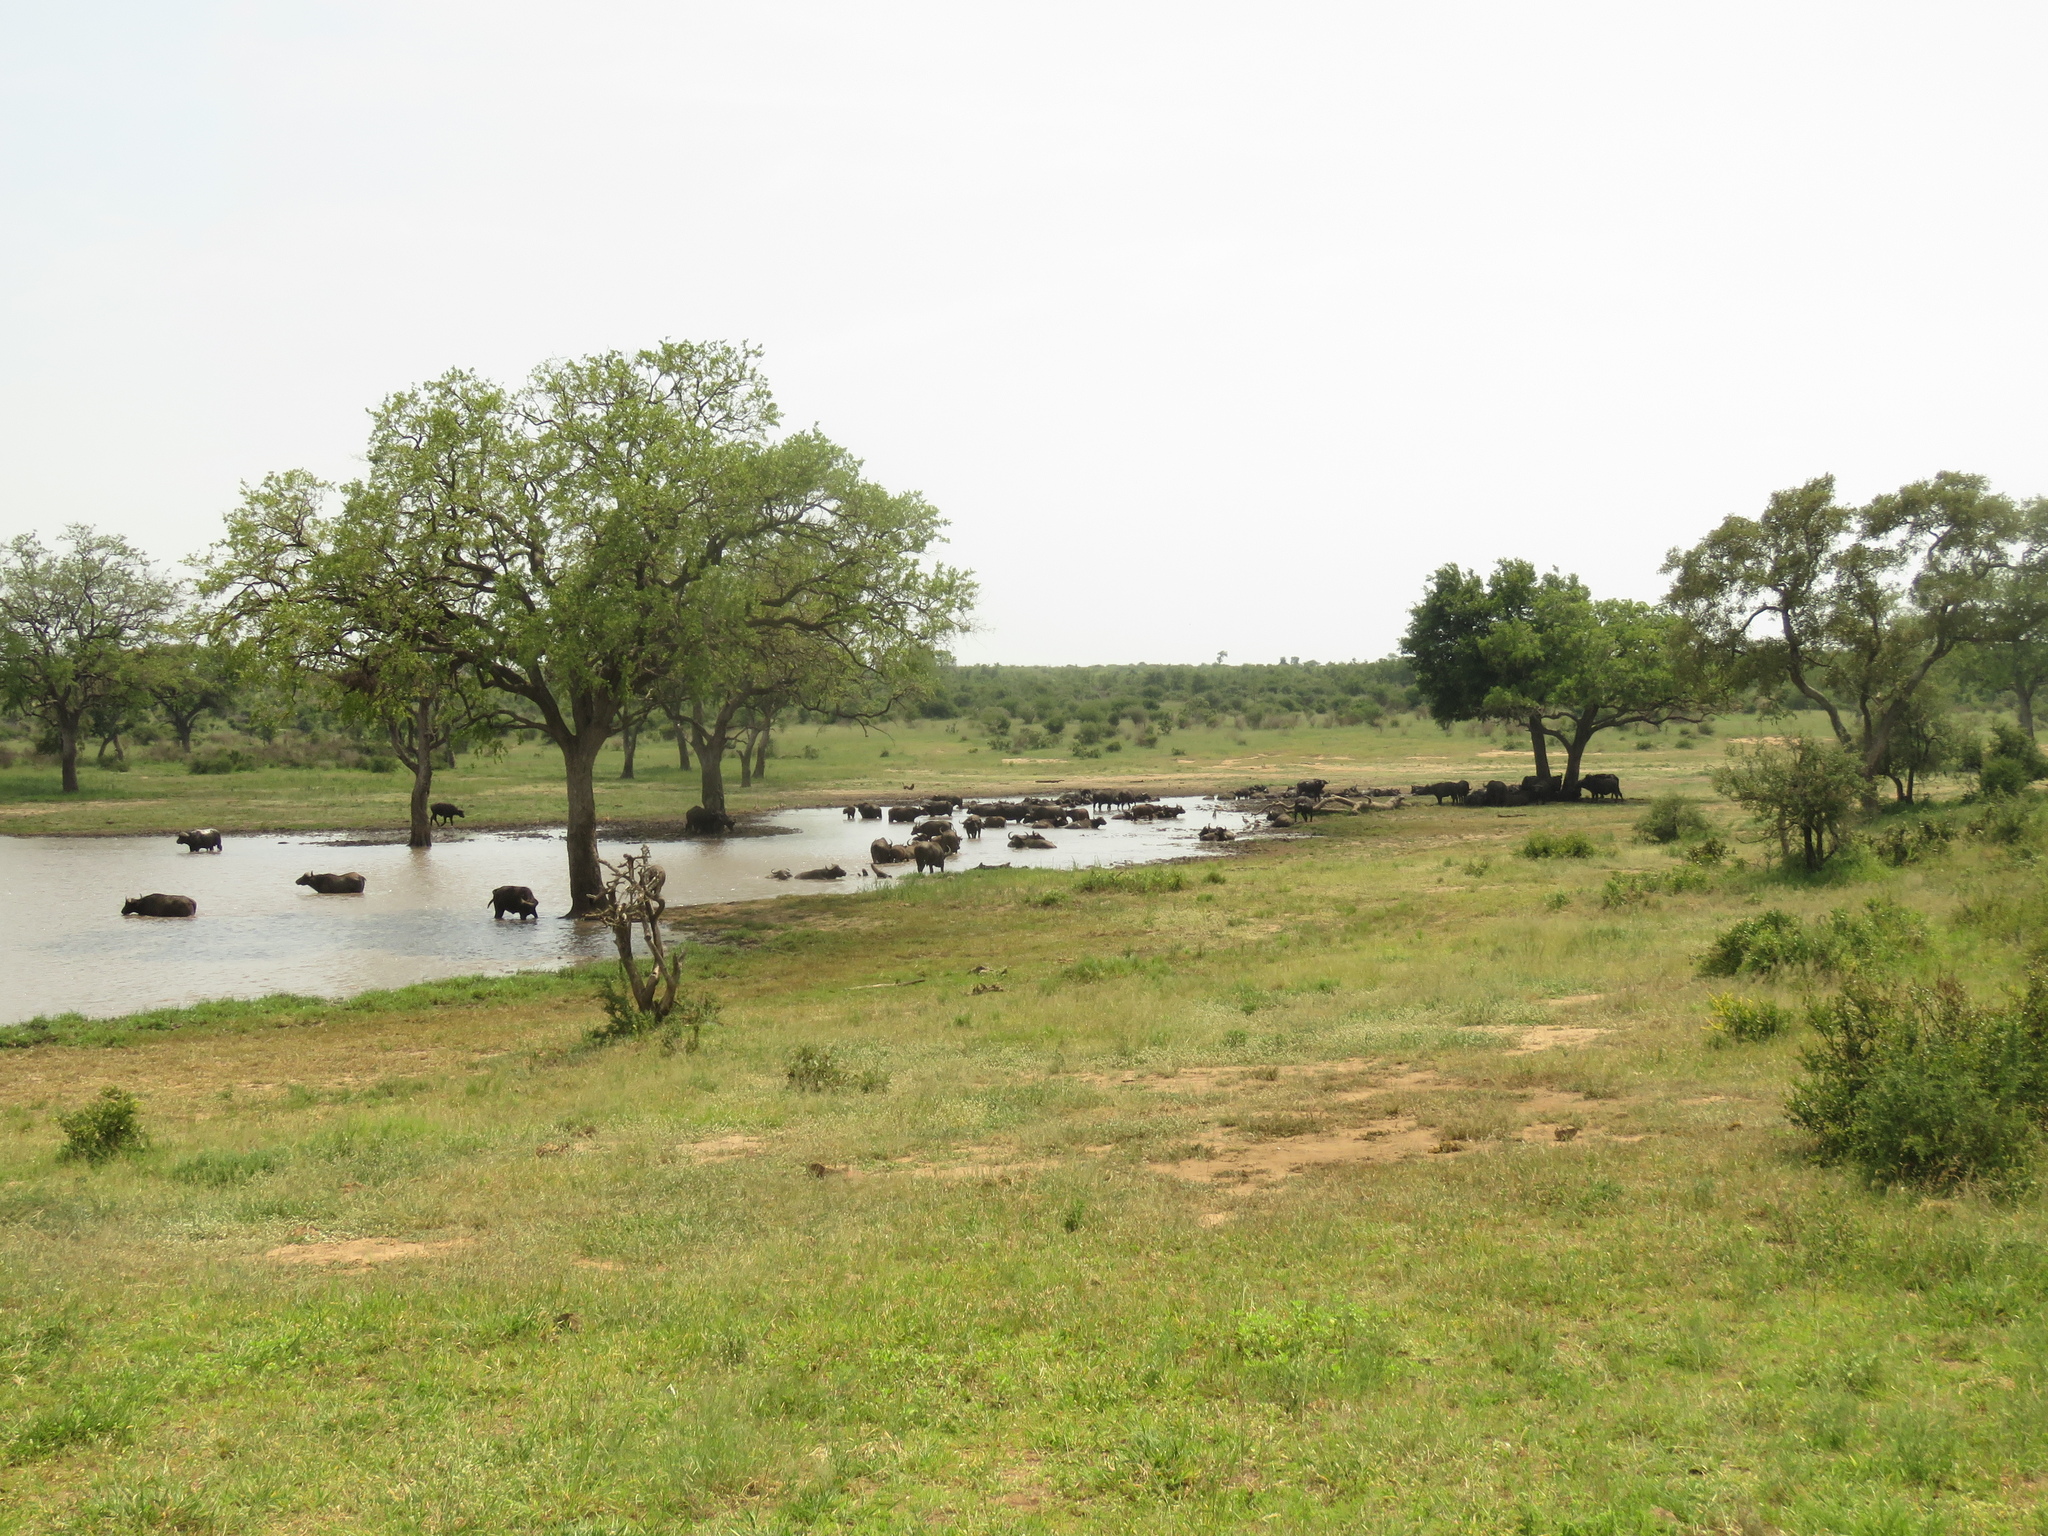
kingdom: Animalia
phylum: Chordata
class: Mammalia
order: Artiodactyla
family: Bovidae
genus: Syncerus
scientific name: Syncerus caffer
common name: African buffalo
